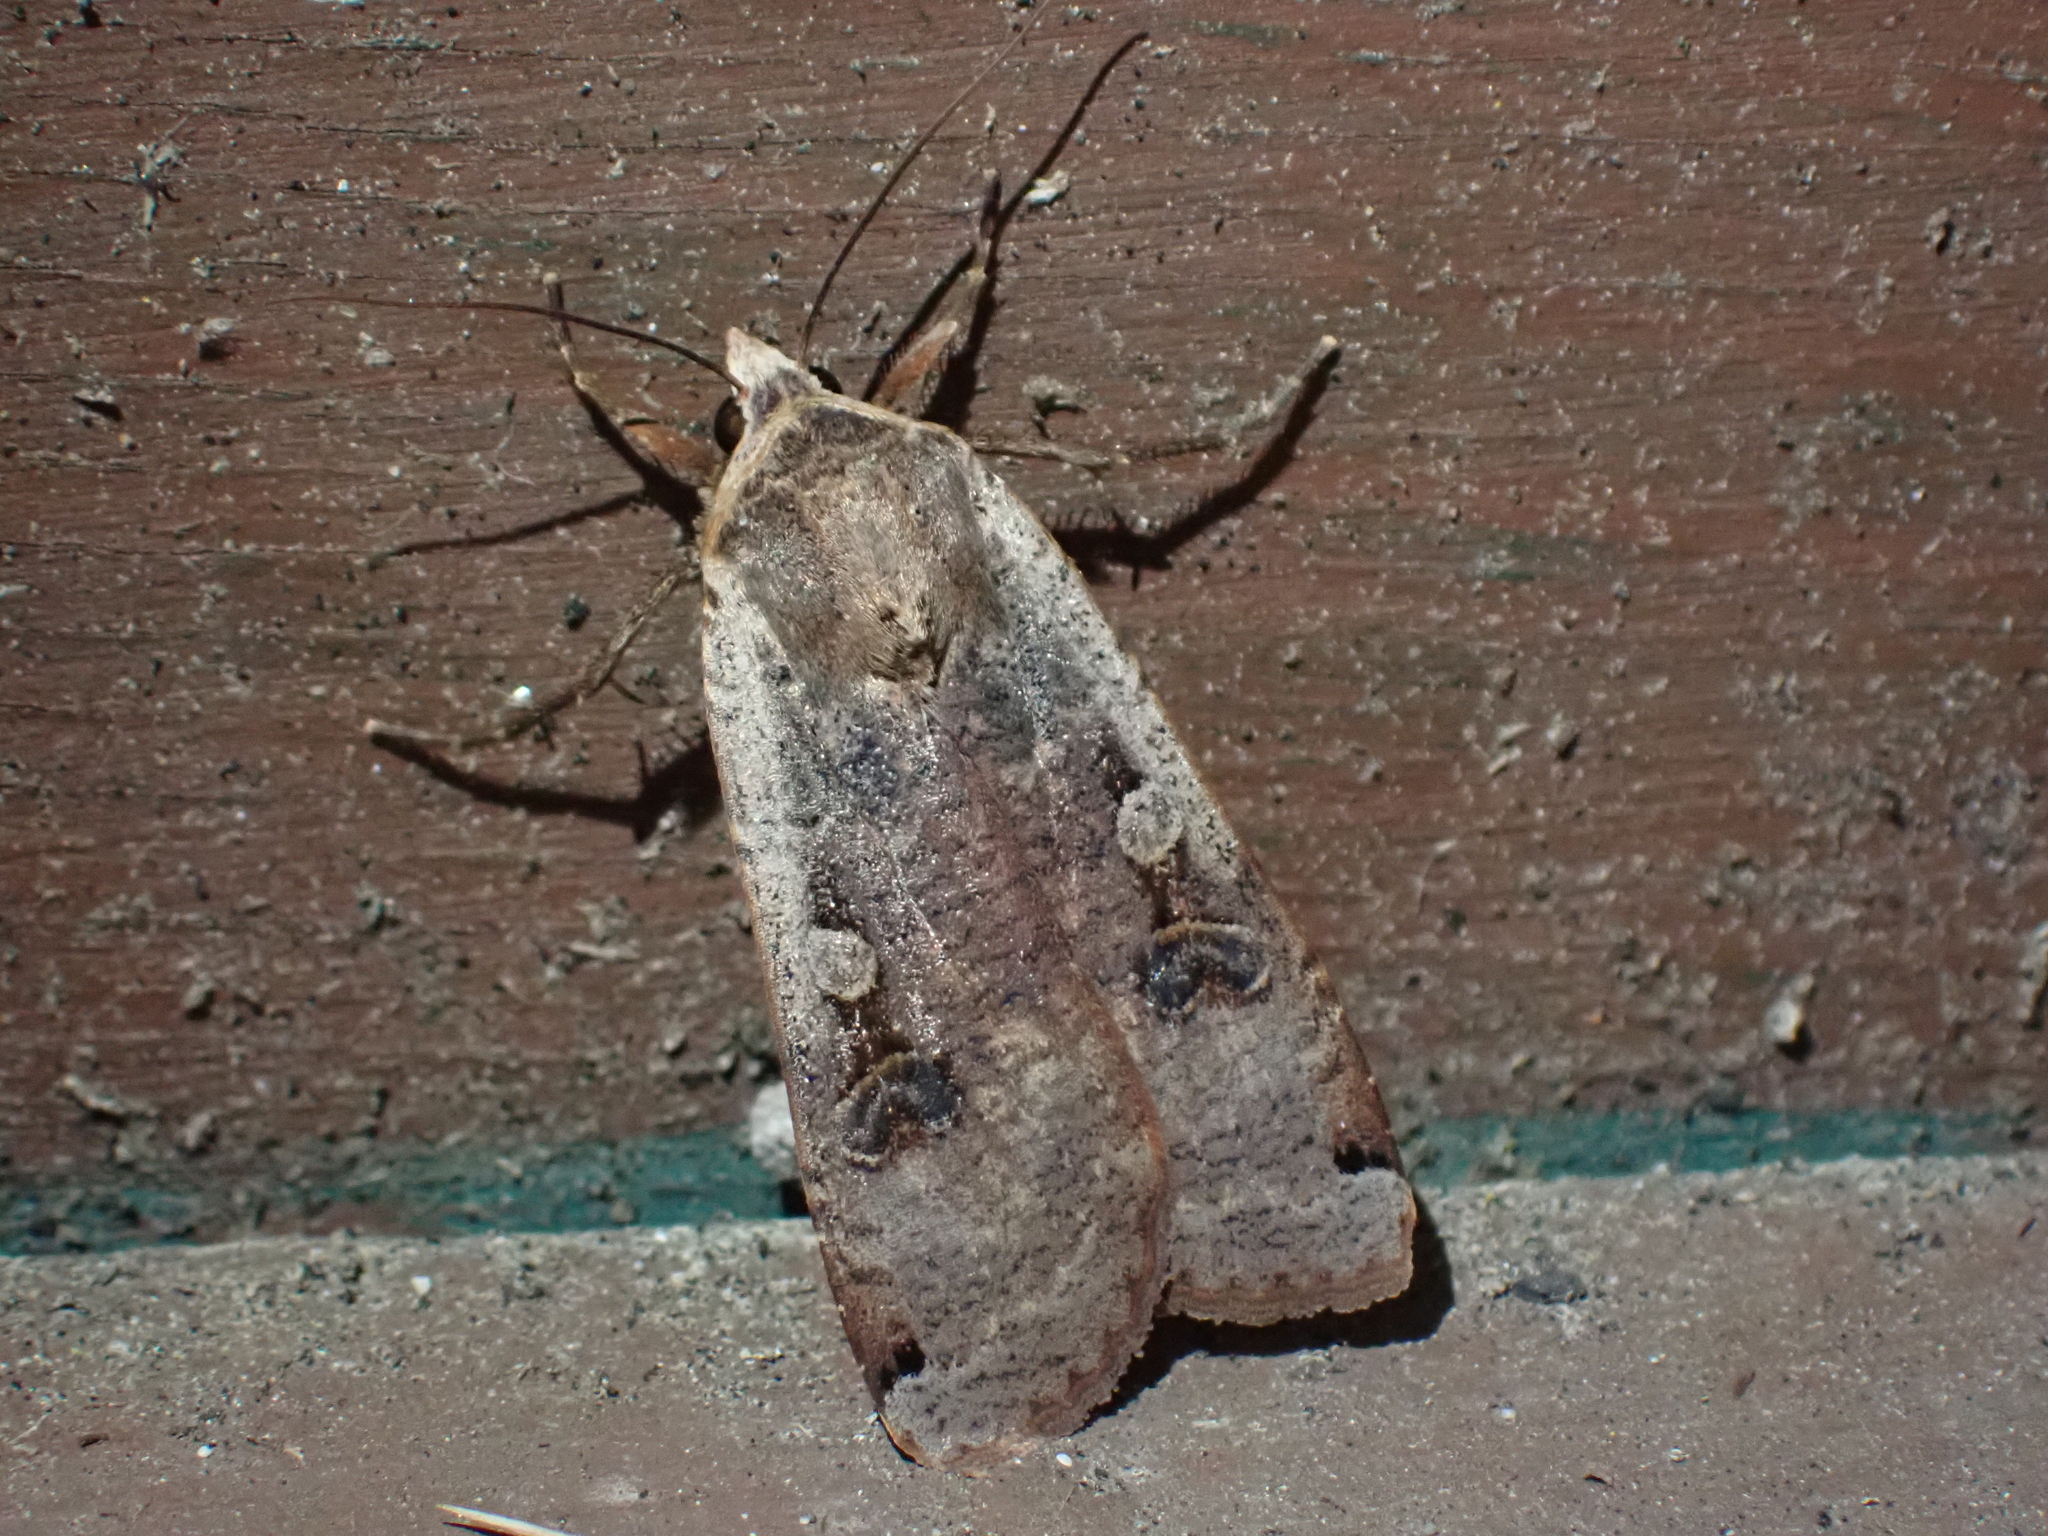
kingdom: Animalia
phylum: Arthropoda
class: Insecta
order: Lepidoptera
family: Noctuidae
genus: Noctua
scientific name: Noctua pronuba
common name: Large yellow underwing
